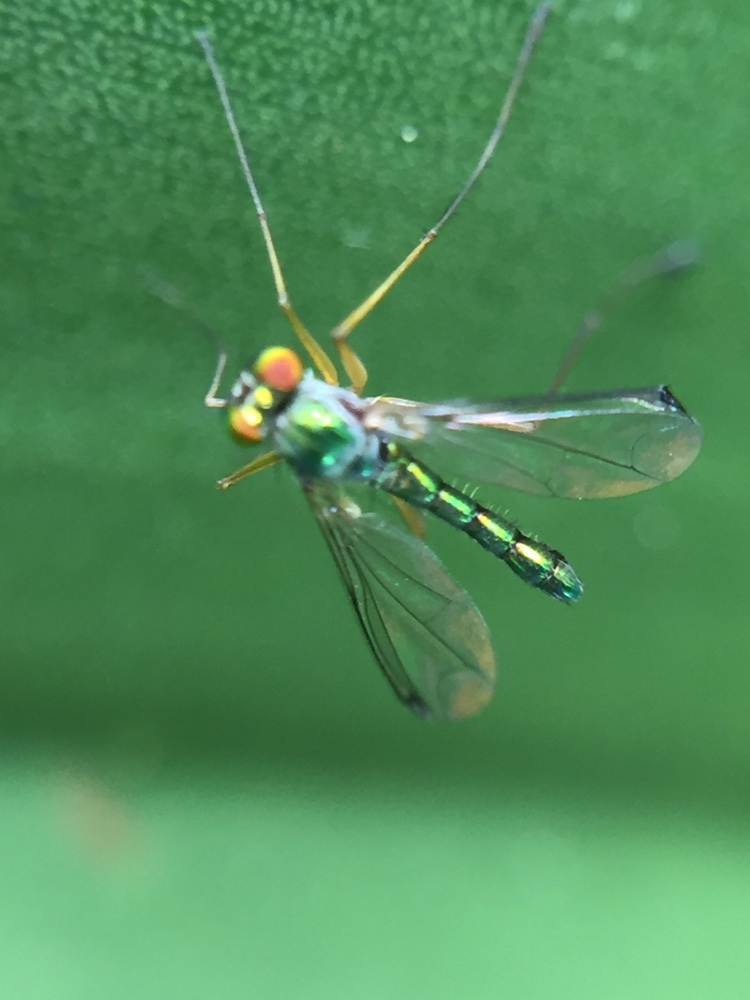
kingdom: Animalia
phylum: Arthropoda
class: Insecta
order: Diptera
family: Dolichopodidae
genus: Parentia
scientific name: Parentia anomalicosta
